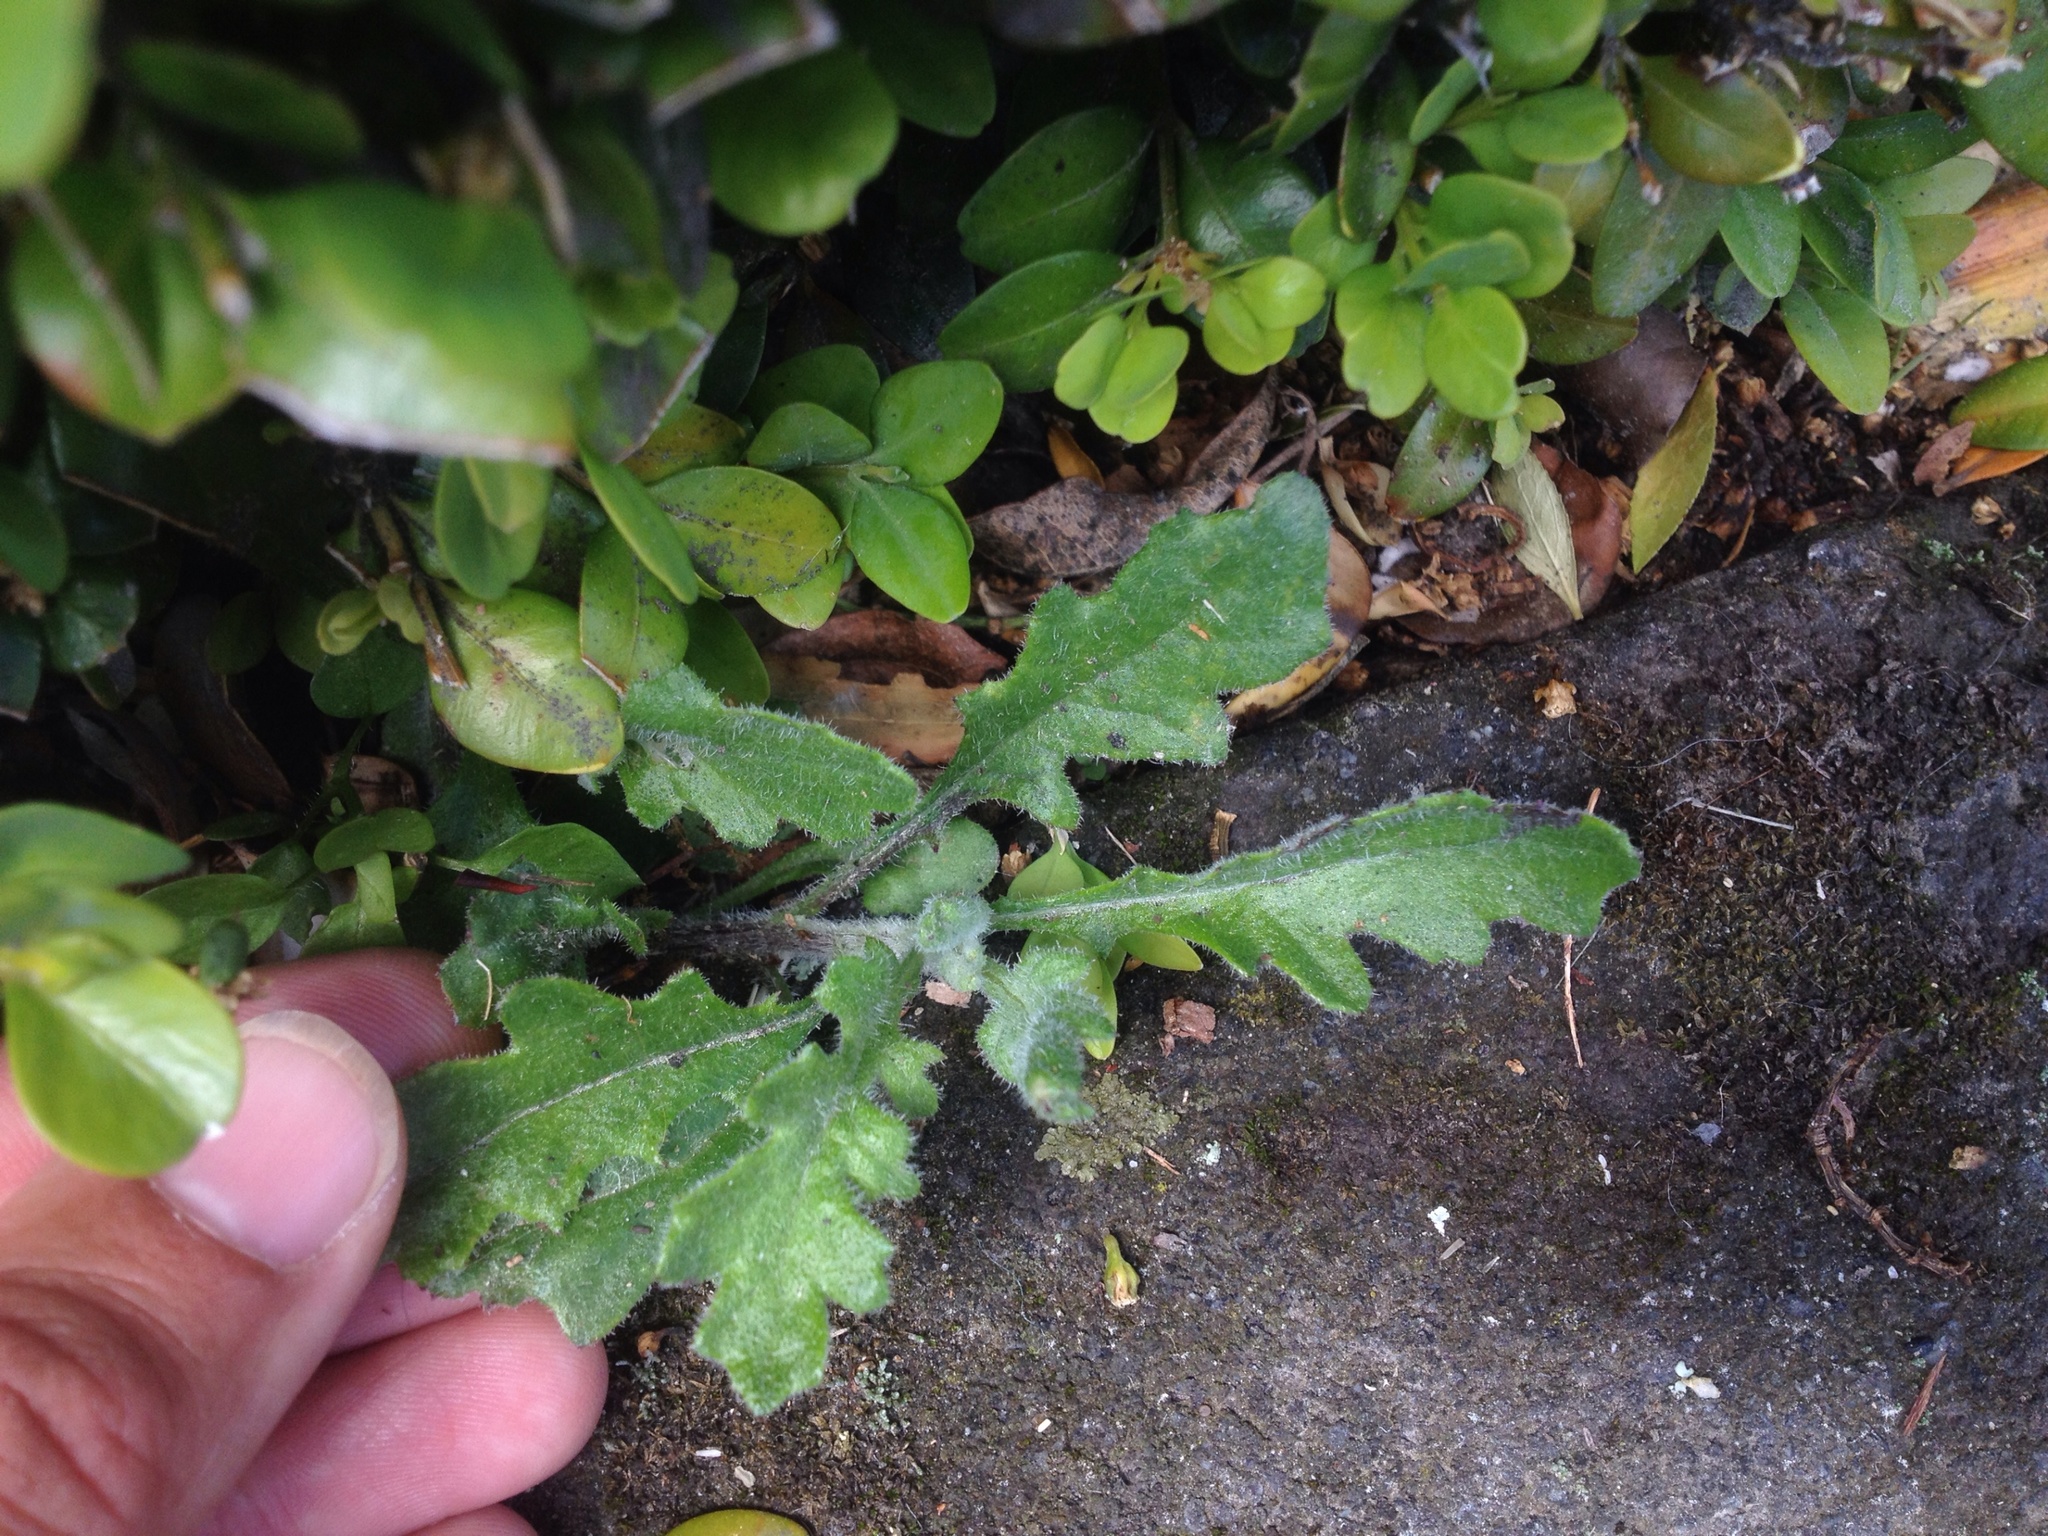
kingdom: Plantae
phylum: Tracheophyta
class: Magnoliopsida
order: Asterales
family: Asteraceae
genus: Senecio
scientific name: Senecio glomeratus
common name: Cutleaf burnweed
